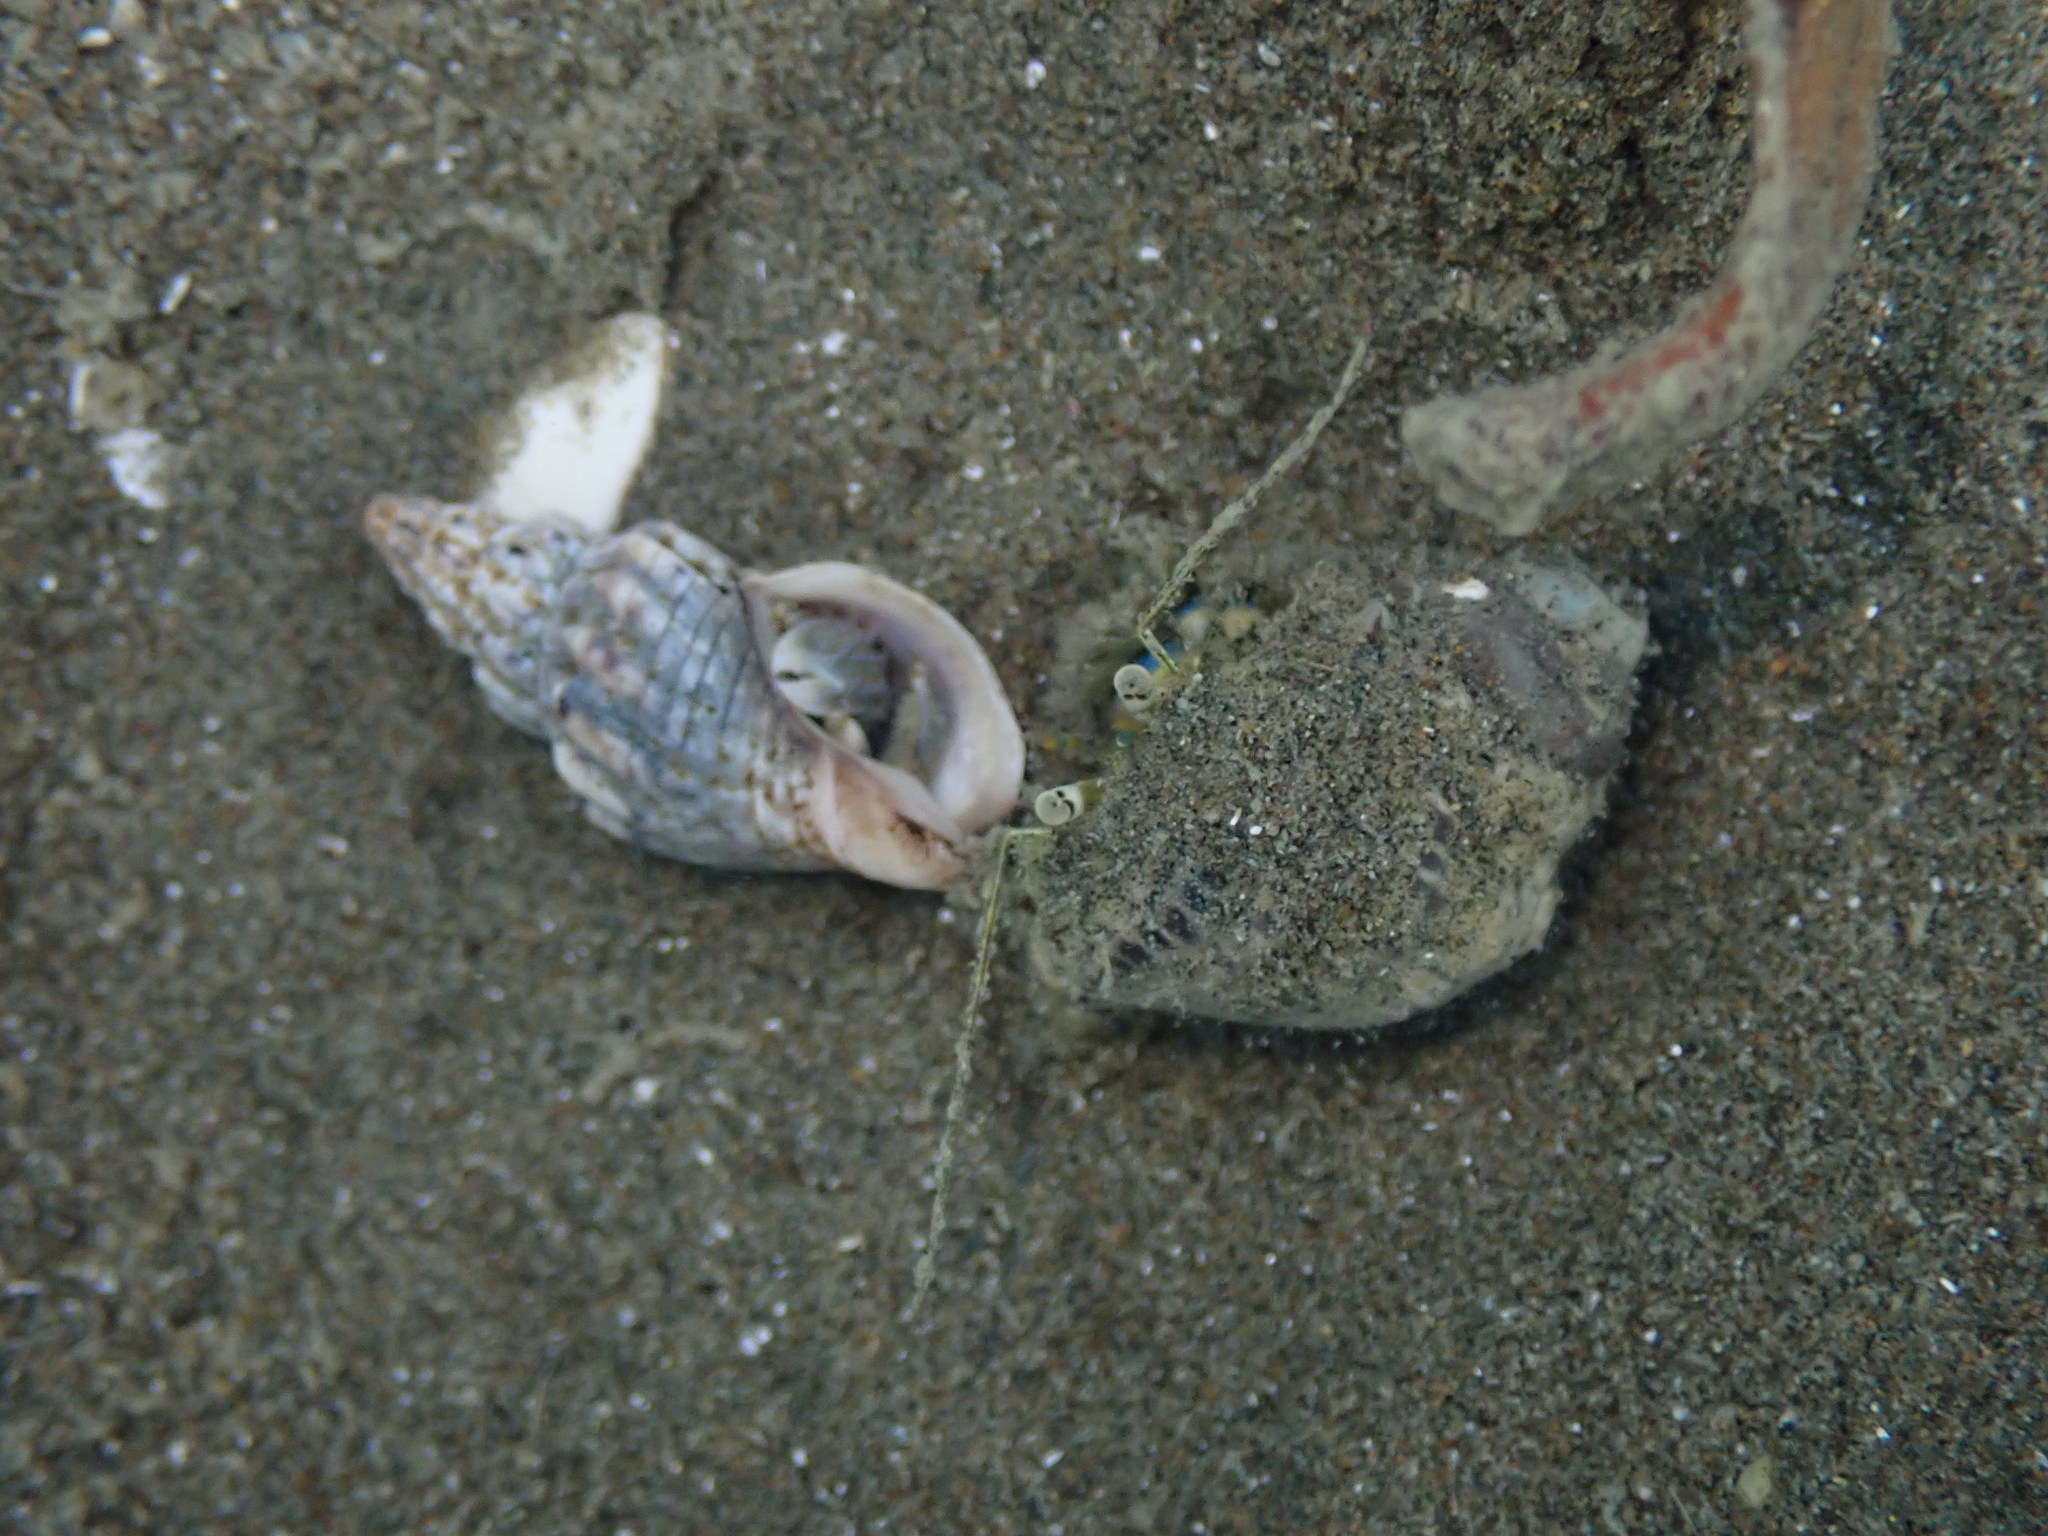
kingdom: Animalia
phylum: Arthropoda
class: Malacostraca
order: Decapoda
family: Paguridae
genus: Pagurus
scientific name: Pagurus novizealandiae
